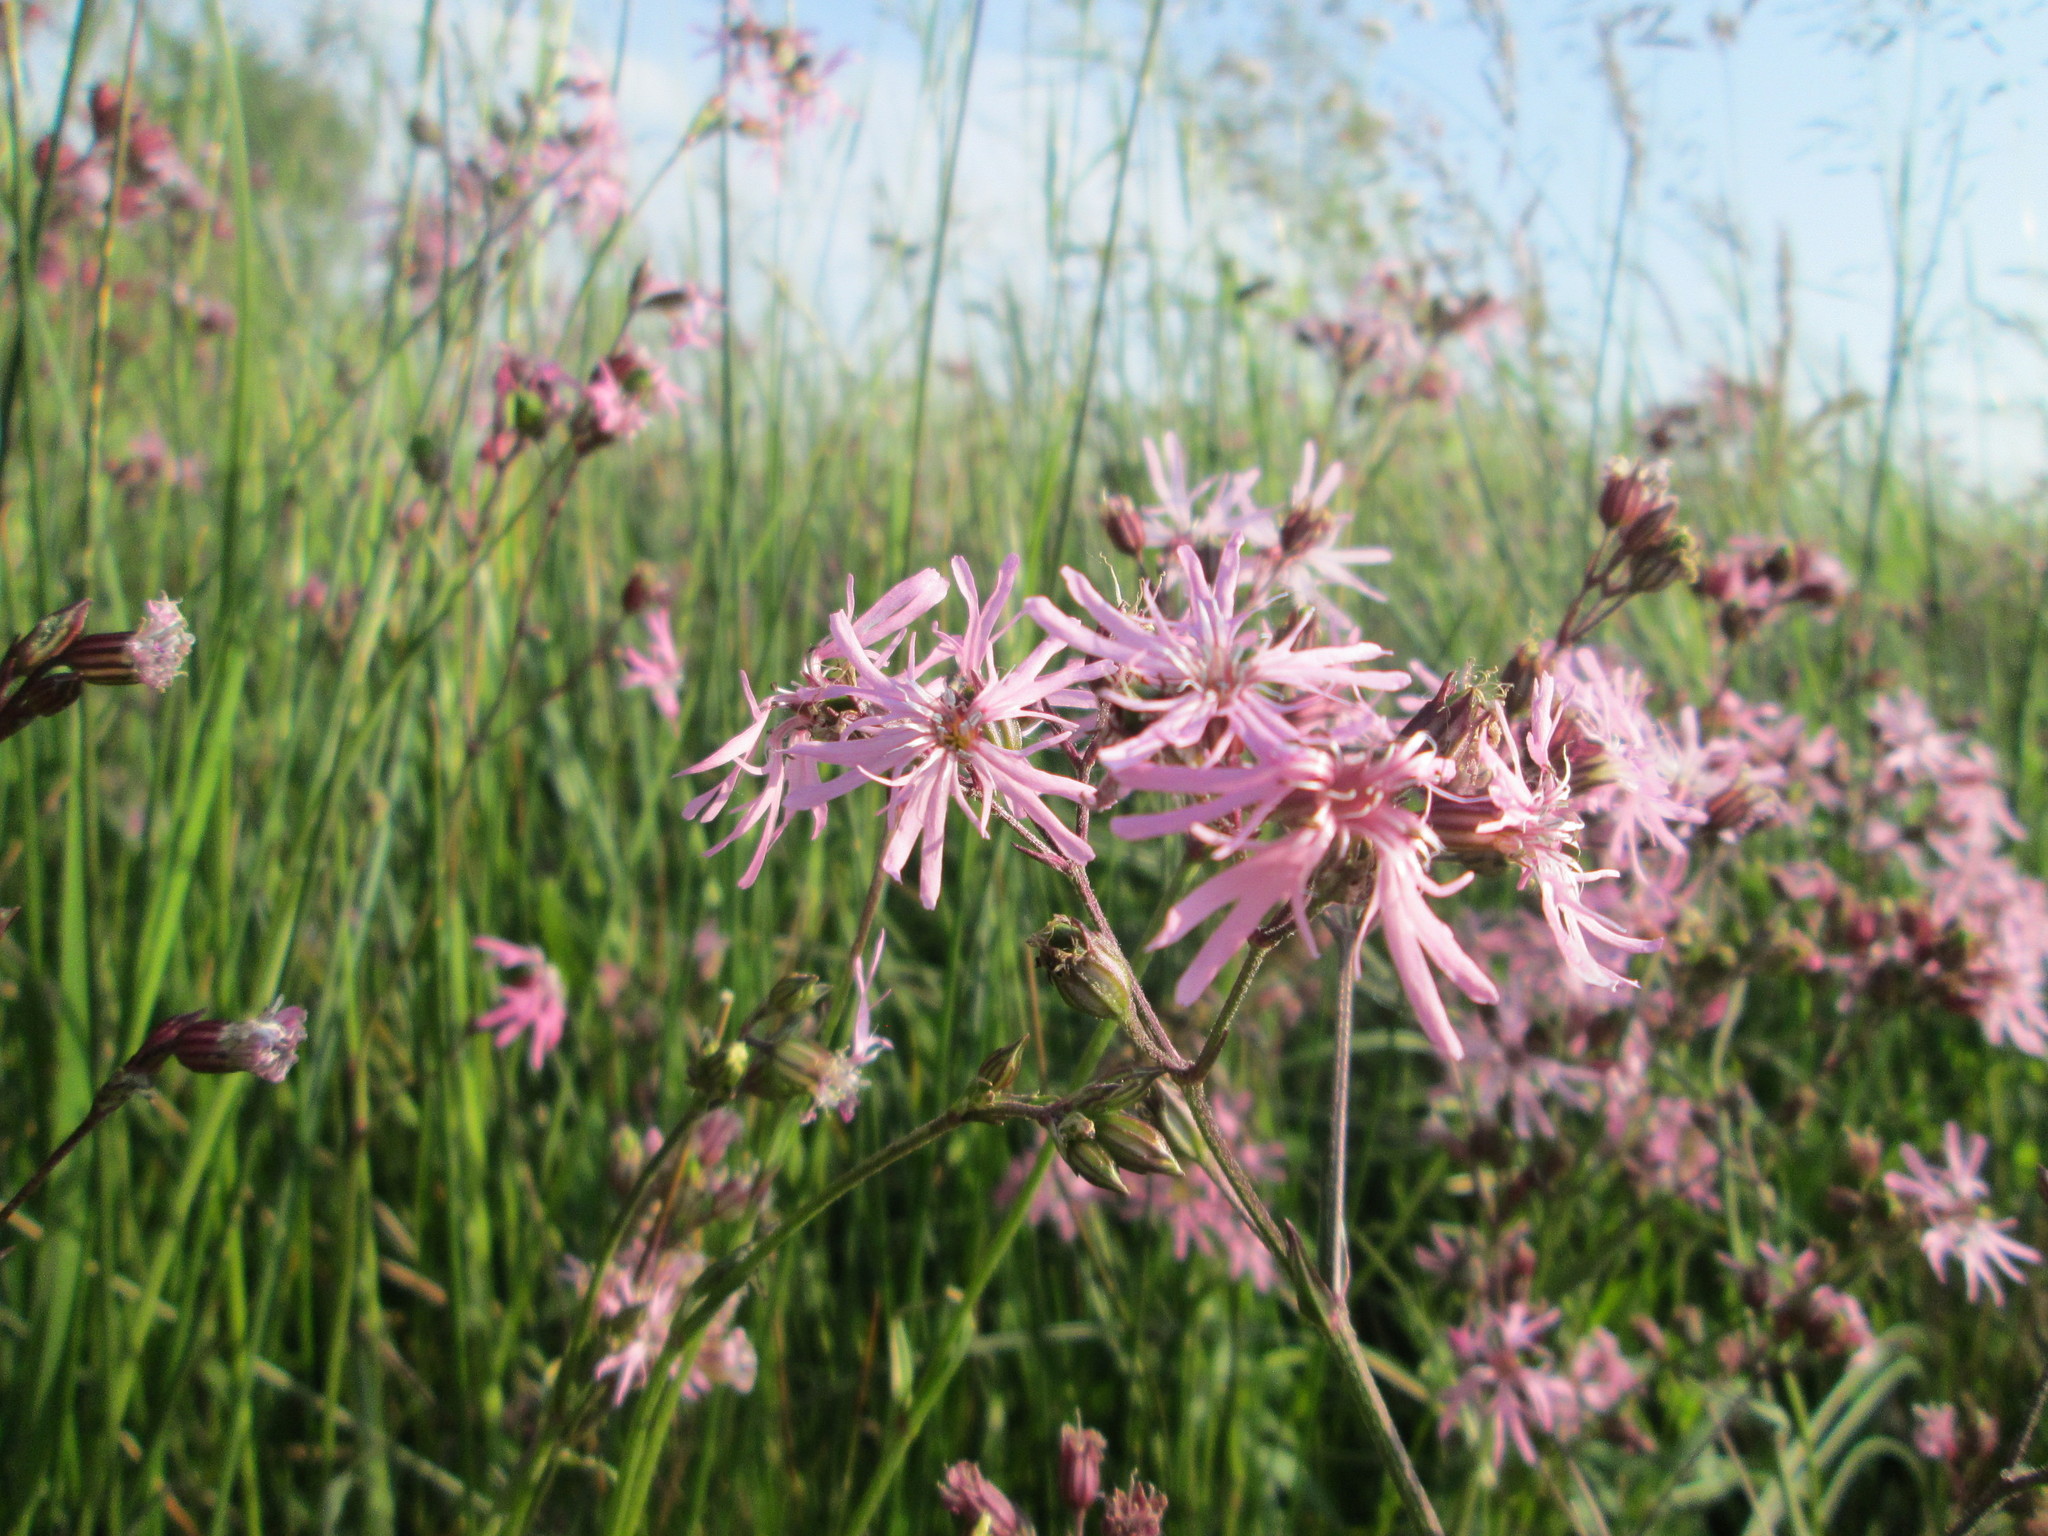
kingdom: Plantae
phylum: Tracheophyta
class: Magnoliopsida
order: Caryophyllales
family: Caryophyllaceae
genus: Silene
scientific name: Silene flos-cuculi
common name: Ragged-robin
